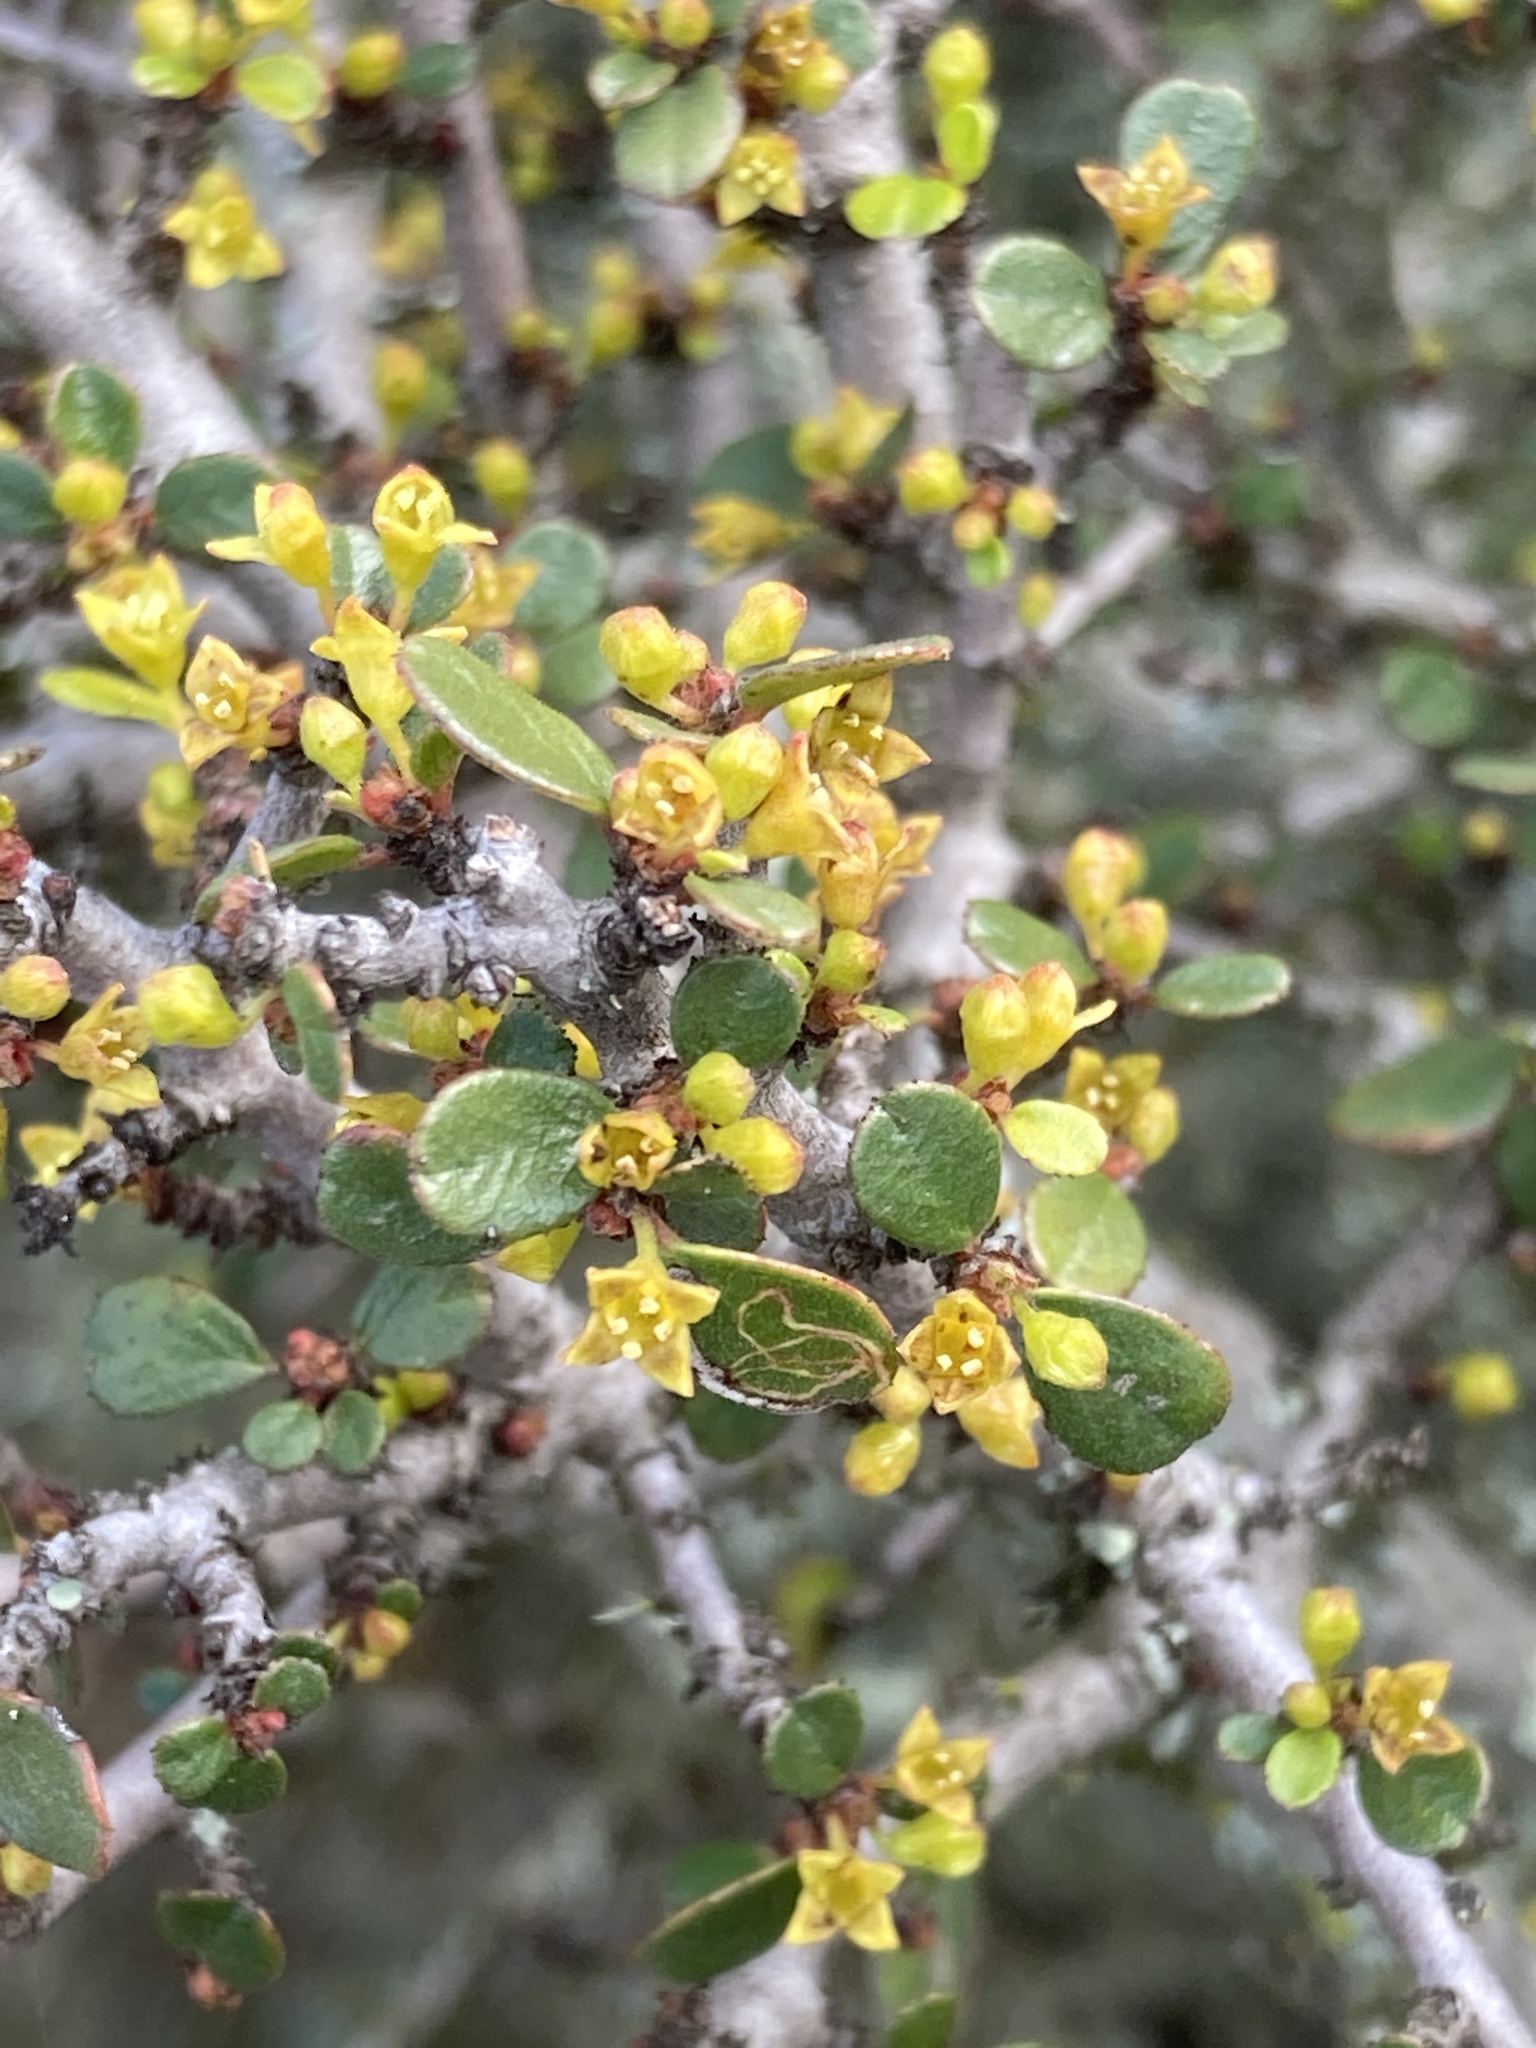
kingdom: Plantae
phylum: Tracheophyta
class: Magnoliopsida
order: Rosales
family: Rhamnaceae
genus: Endotropis
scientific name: Endotropis crocea
